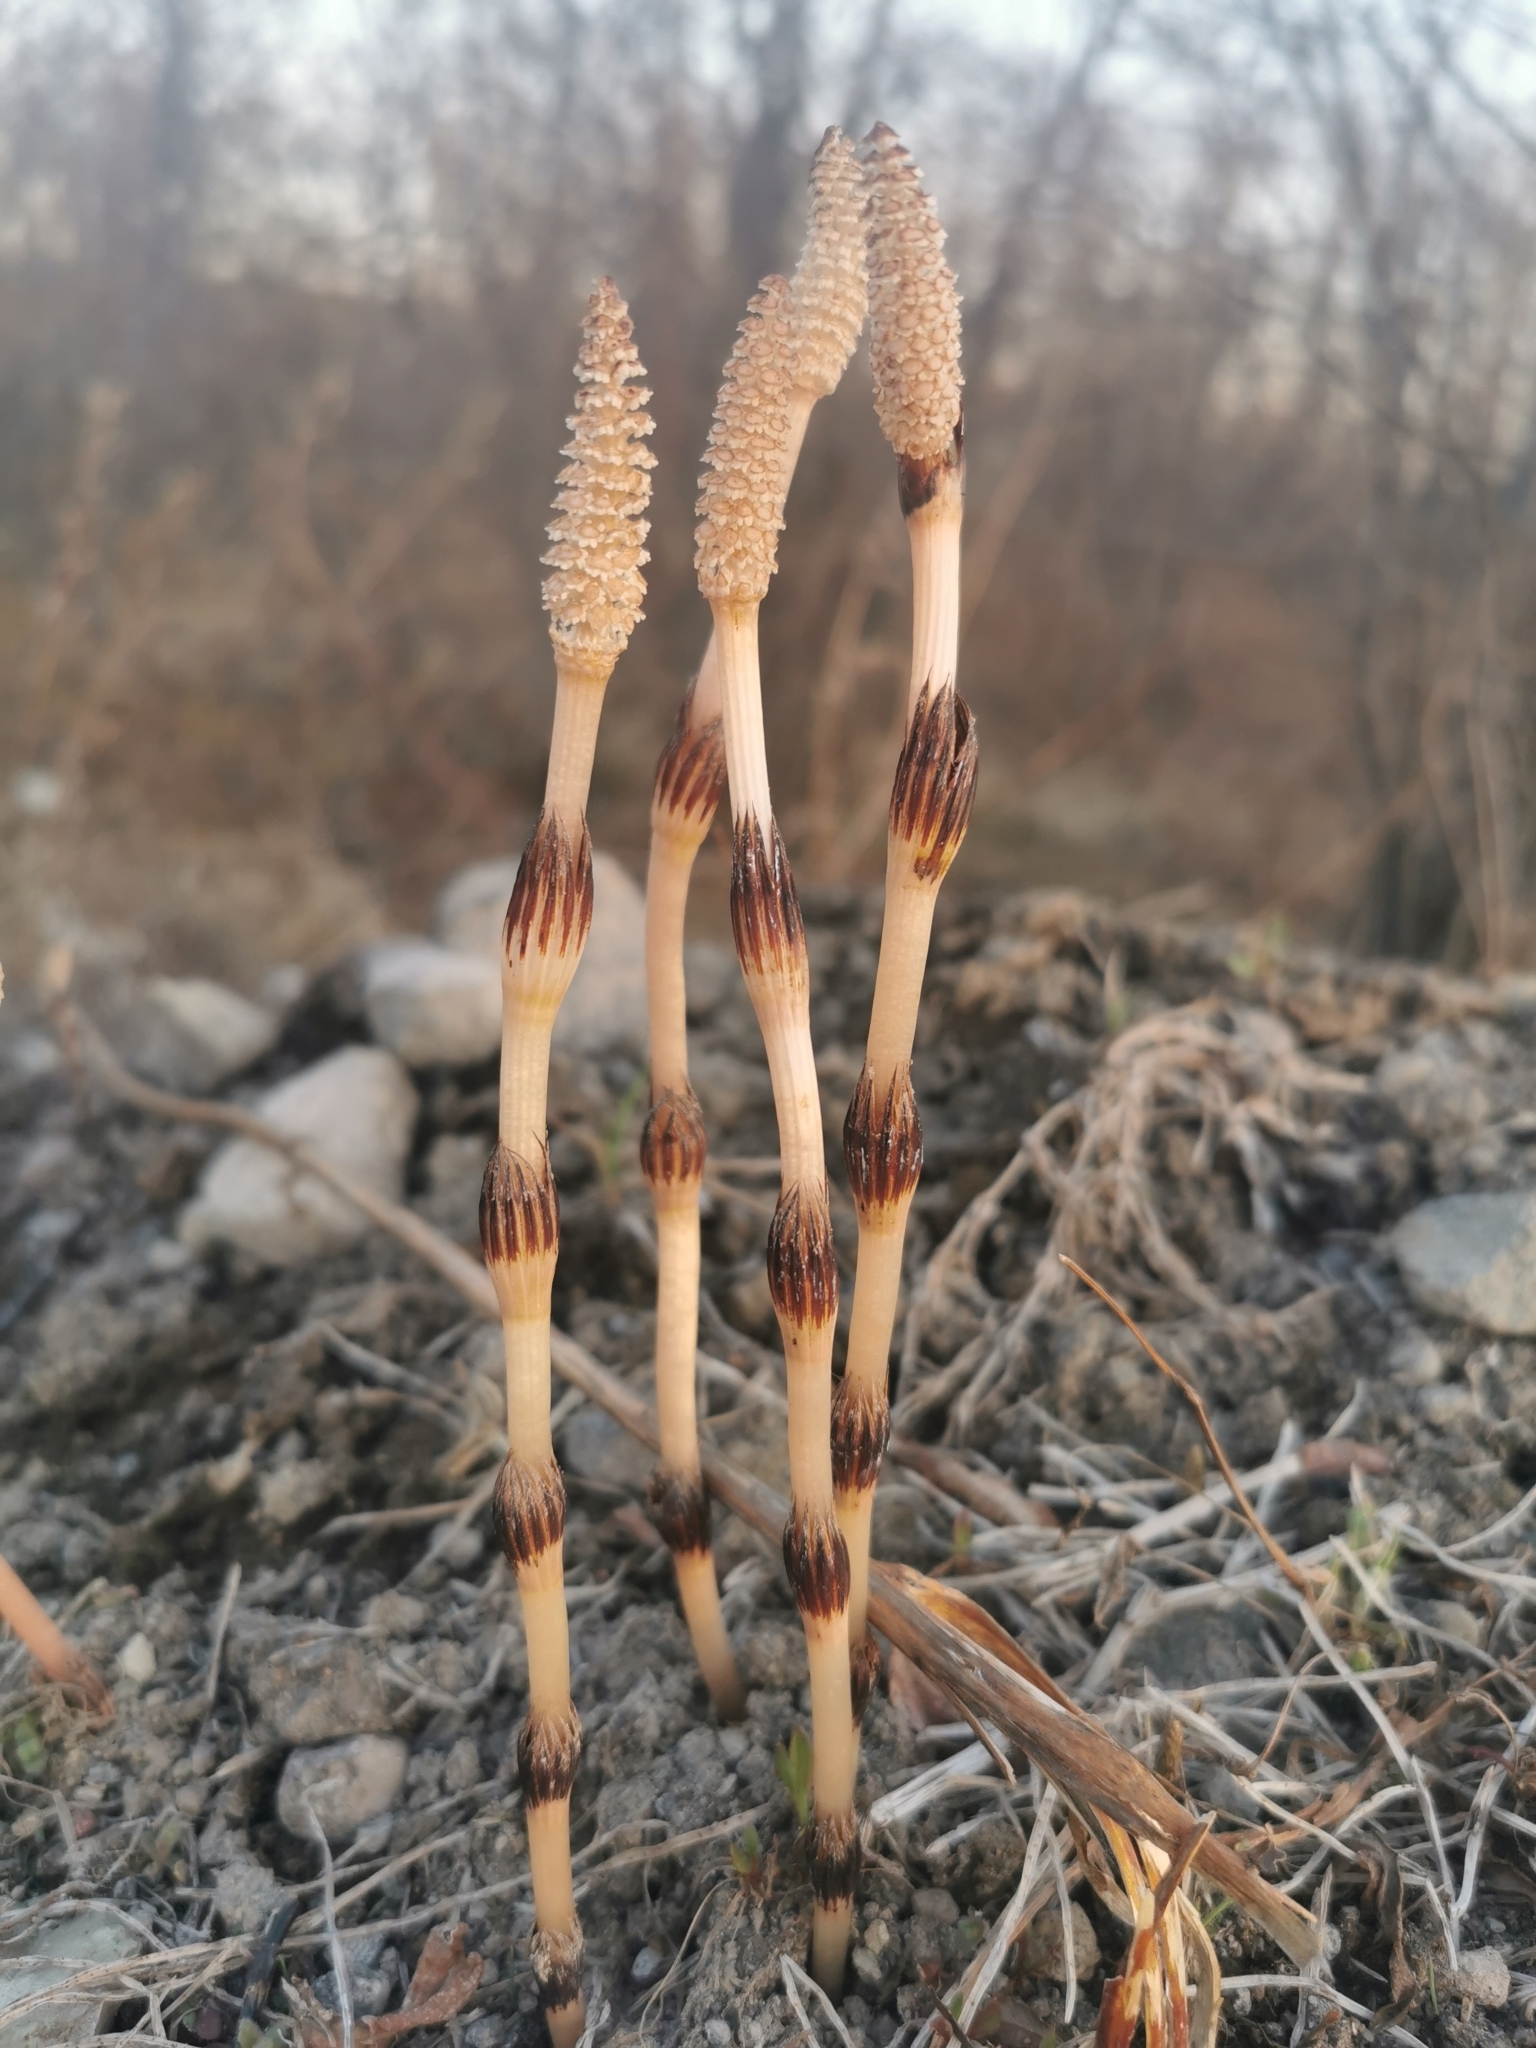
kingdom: Plantae
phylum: Tracheophyta
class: Polypodiopsida
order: Equisetales
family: Equisetaceae
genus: Equisetum
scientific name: Equisetum arvense
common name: Field horsetail
